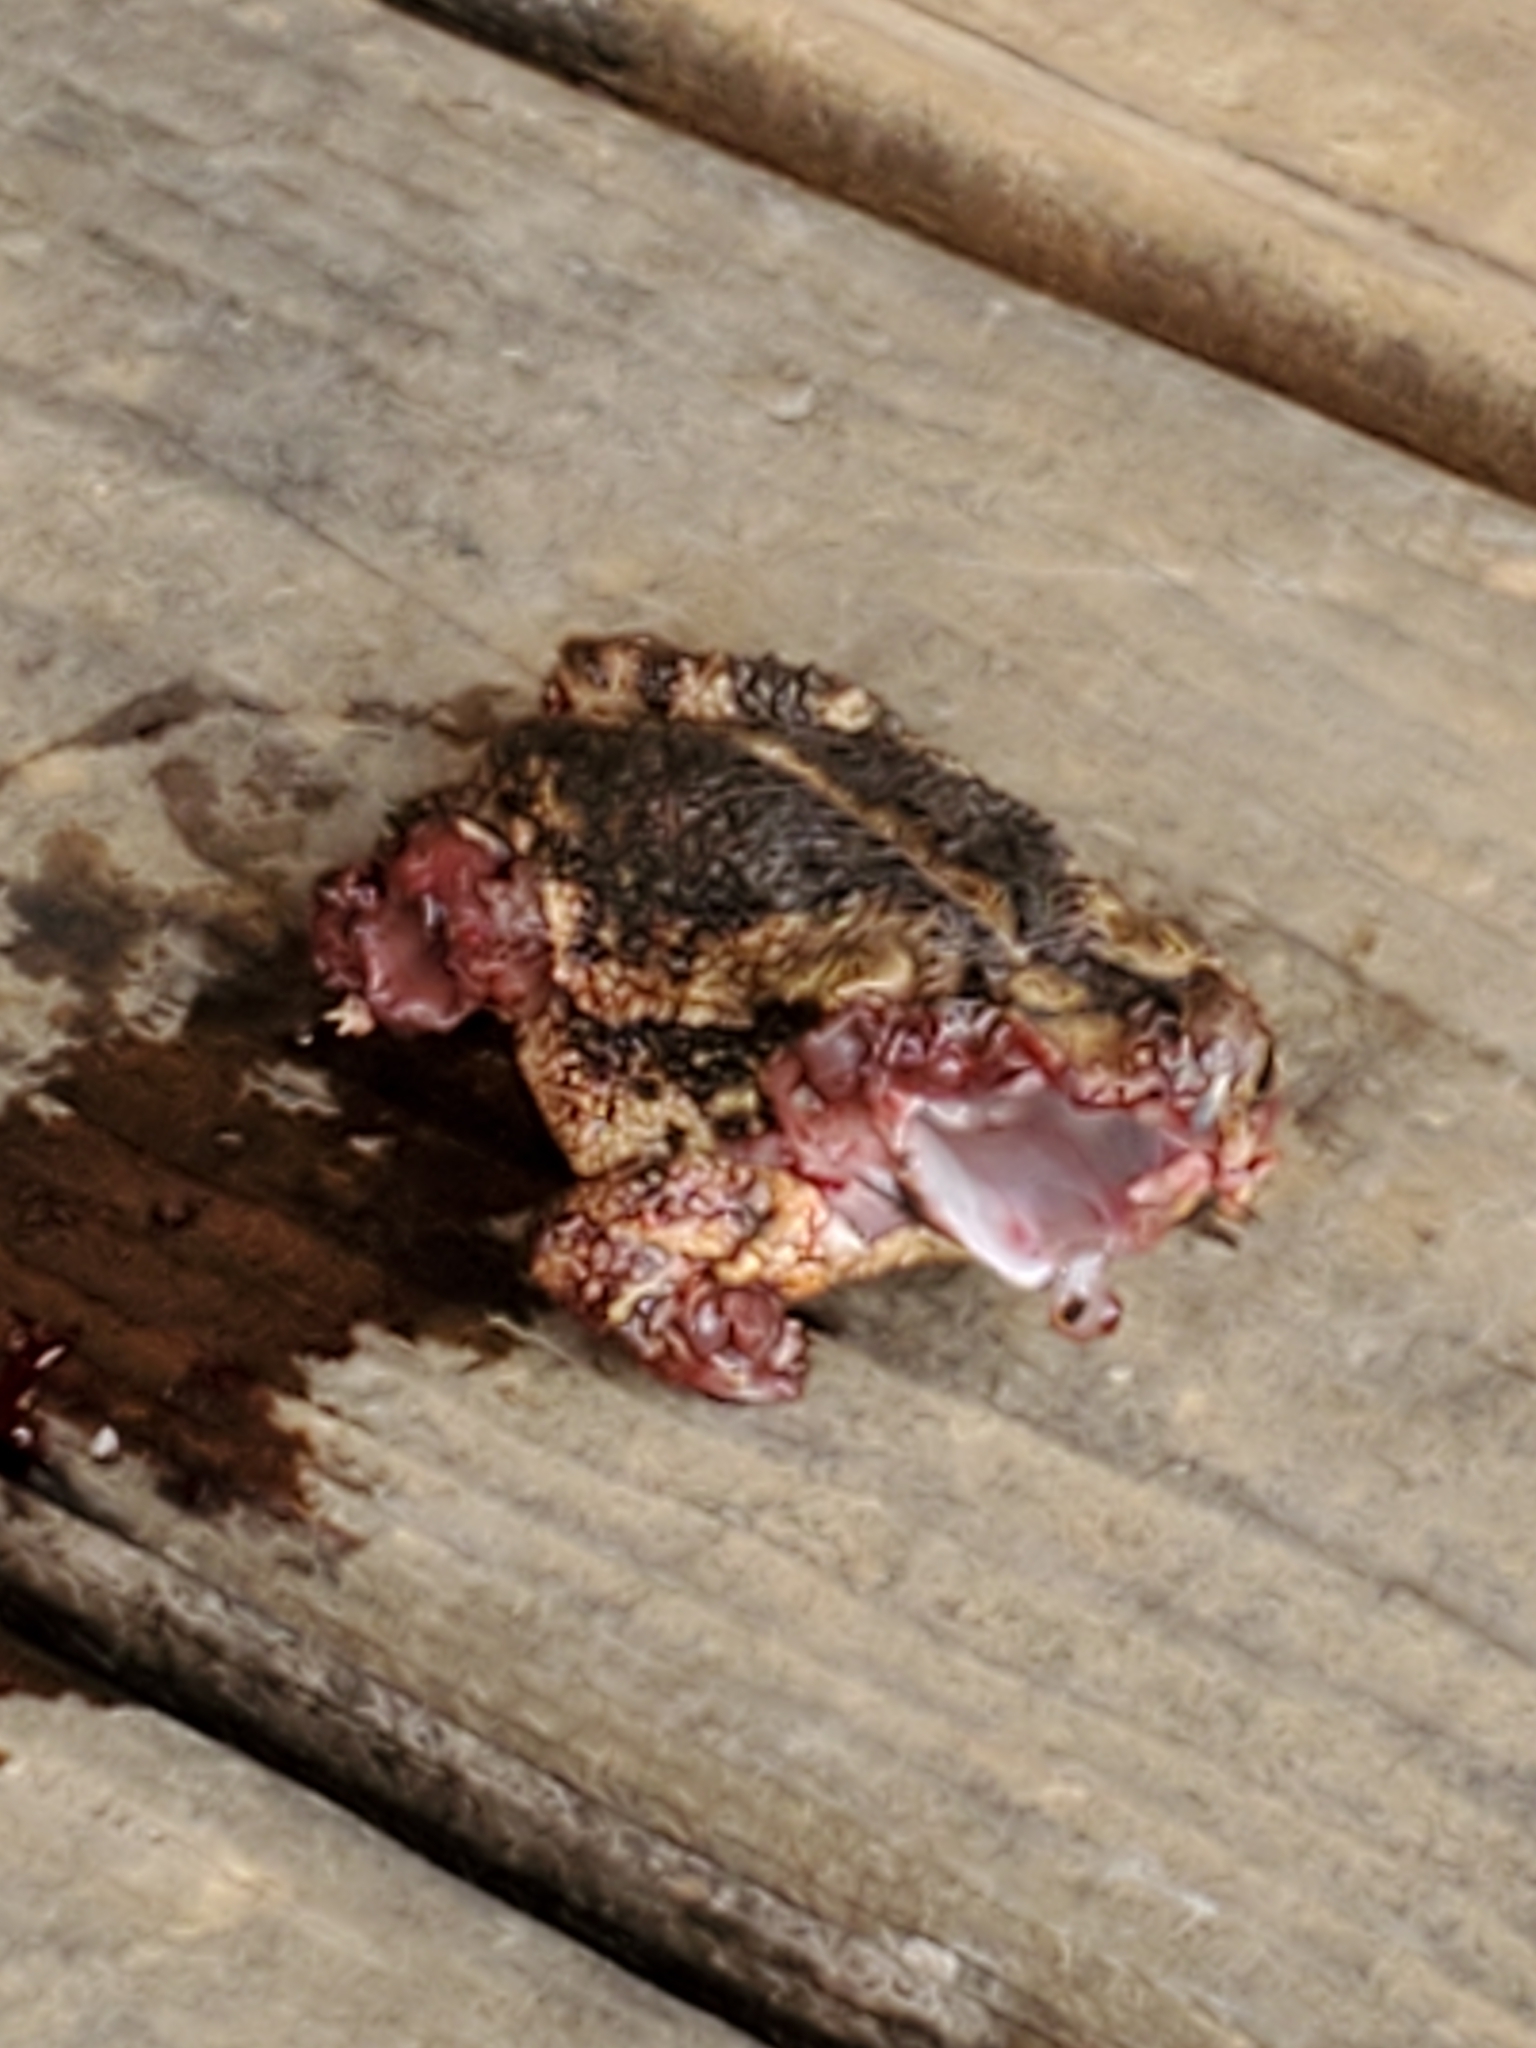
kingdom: Animalia
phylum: Chordata
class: Amphibia
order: Anura
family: Bufonidae
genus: Incilius
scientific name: Incilius nebulifer
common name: Gulf coast toad
